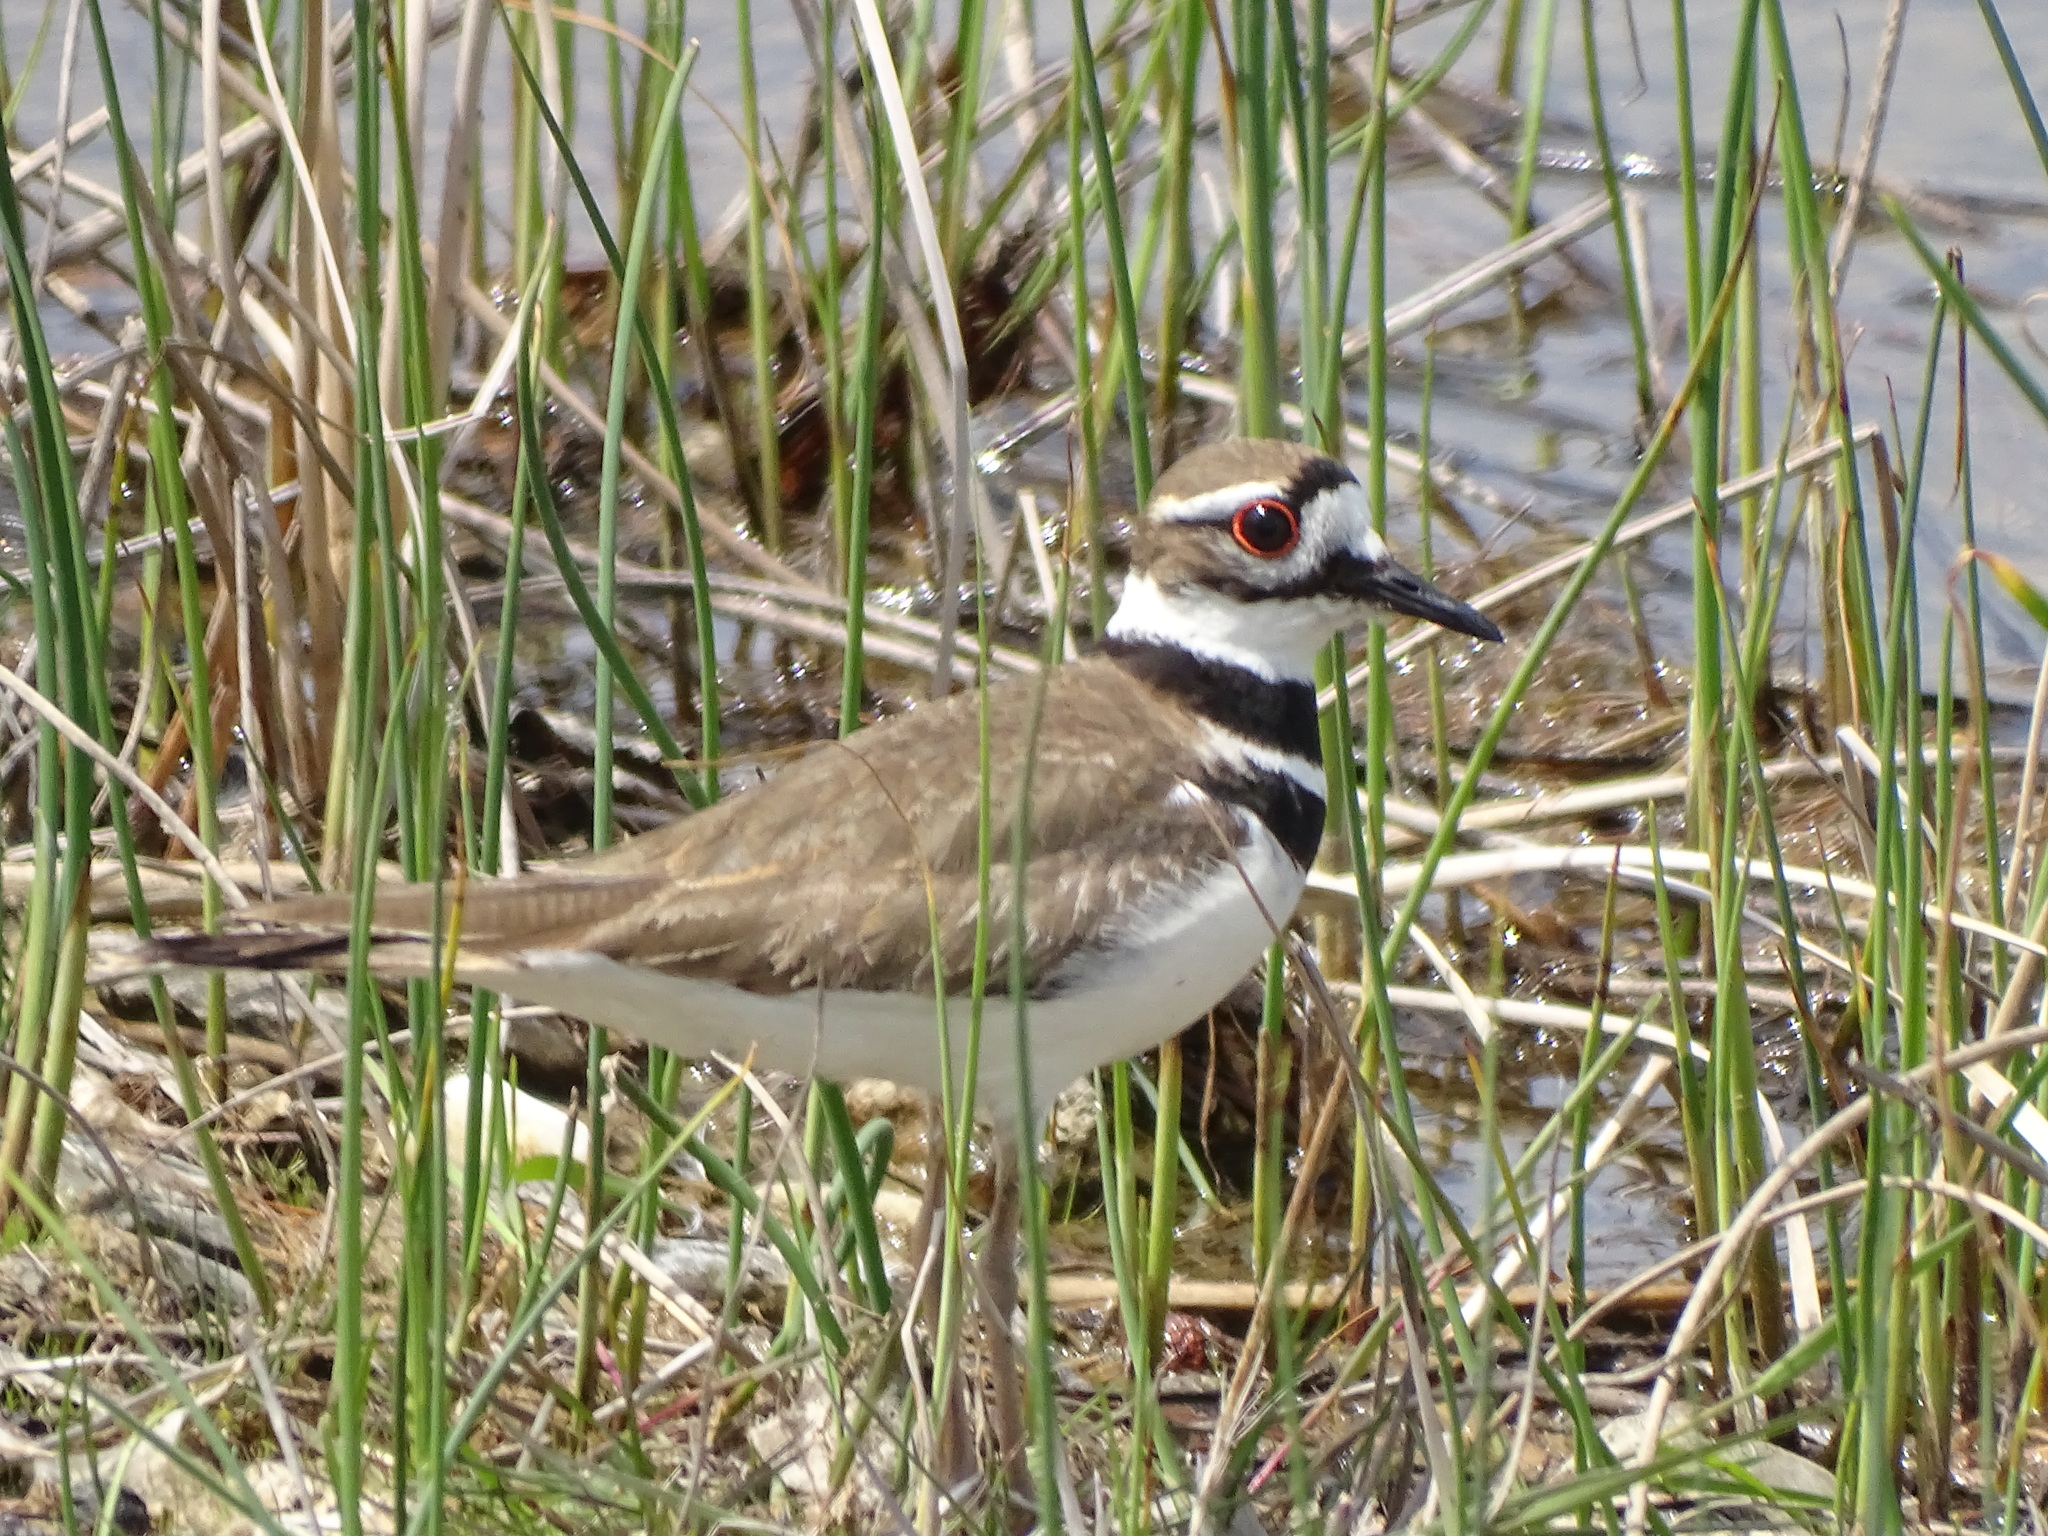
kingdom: Animalia
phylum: Chordata
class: Aves
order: Charadriiformes
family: Charadriidae
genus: Charadrius
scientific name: Charadrius vociferus
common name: Killdeer
